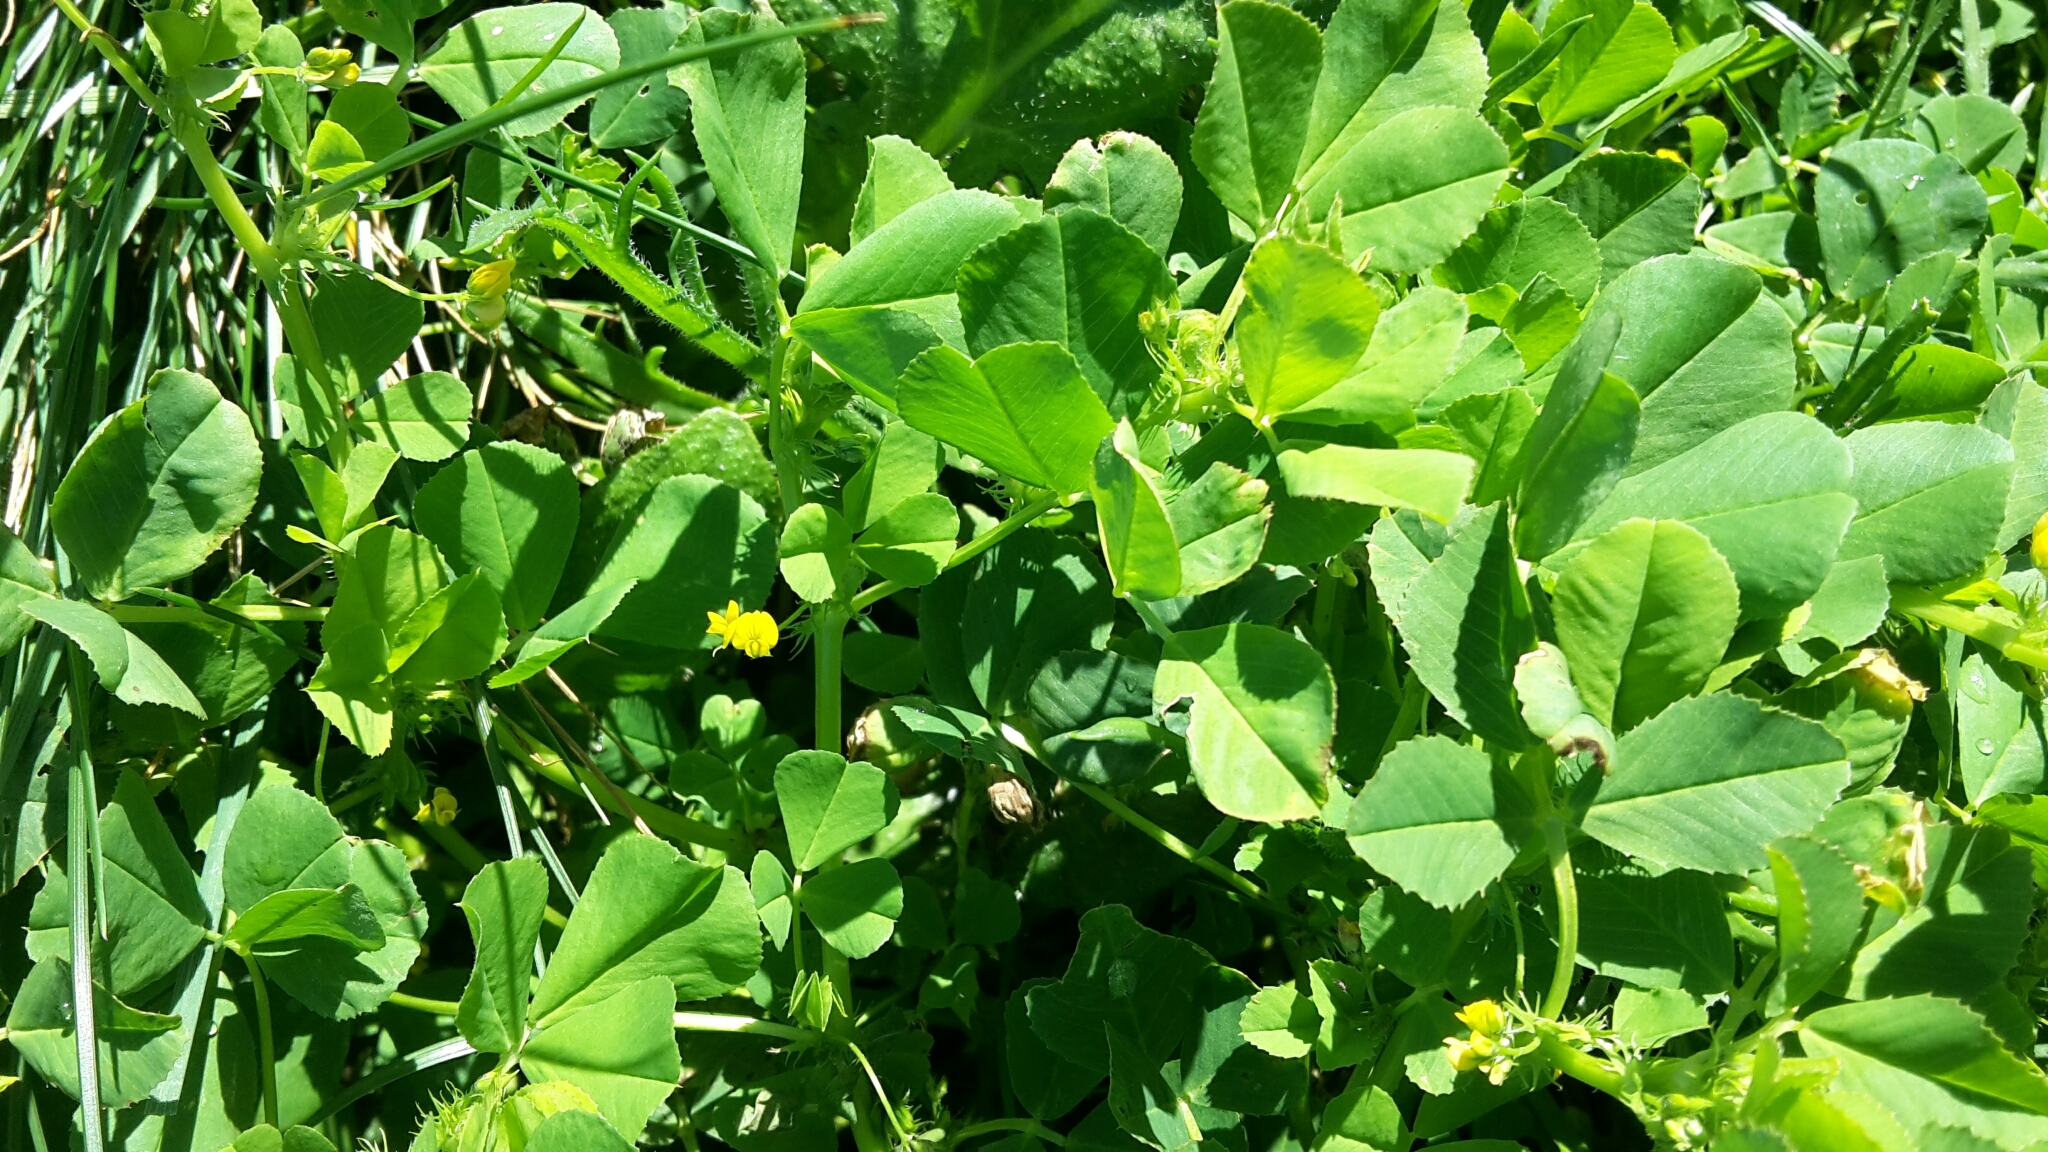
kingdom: Plantae
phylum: Tracheophyta
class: Magnoliopsida
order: Fabales
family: Fabaceae
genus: Medicago
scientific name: Medicago polymorpha
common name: Burclover
